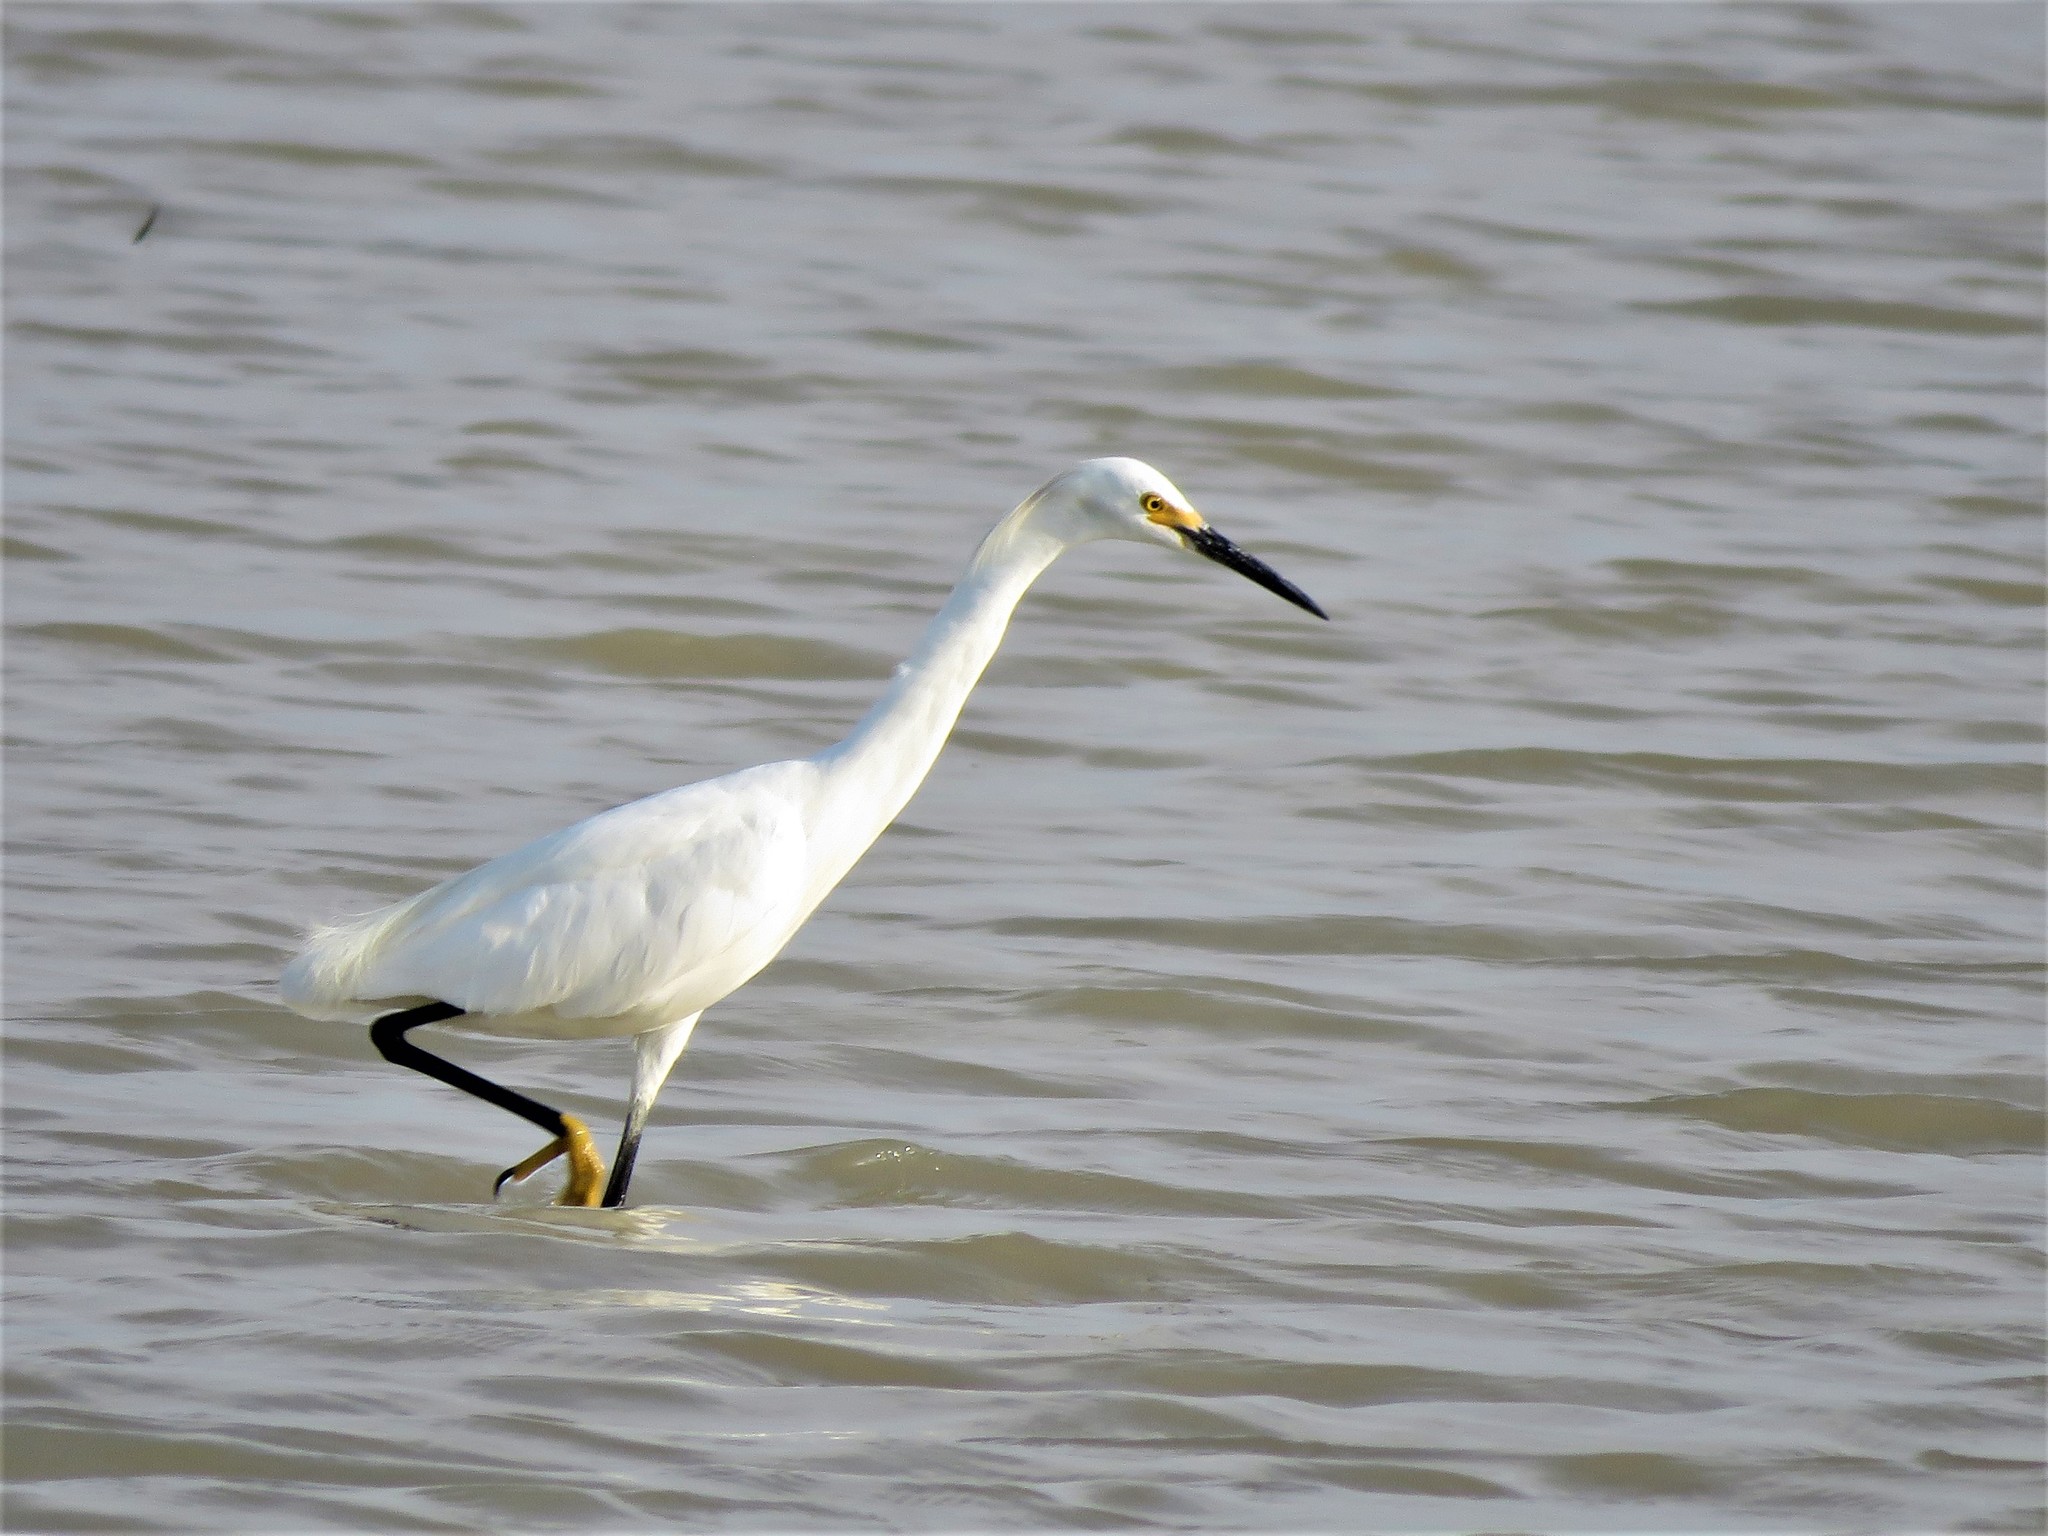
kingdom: Animalia
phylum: Chordata
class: Aves
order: Pelecaniformes
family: Ardeidae
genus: Egretta
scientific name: Egretta thula
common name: Snowy egret
